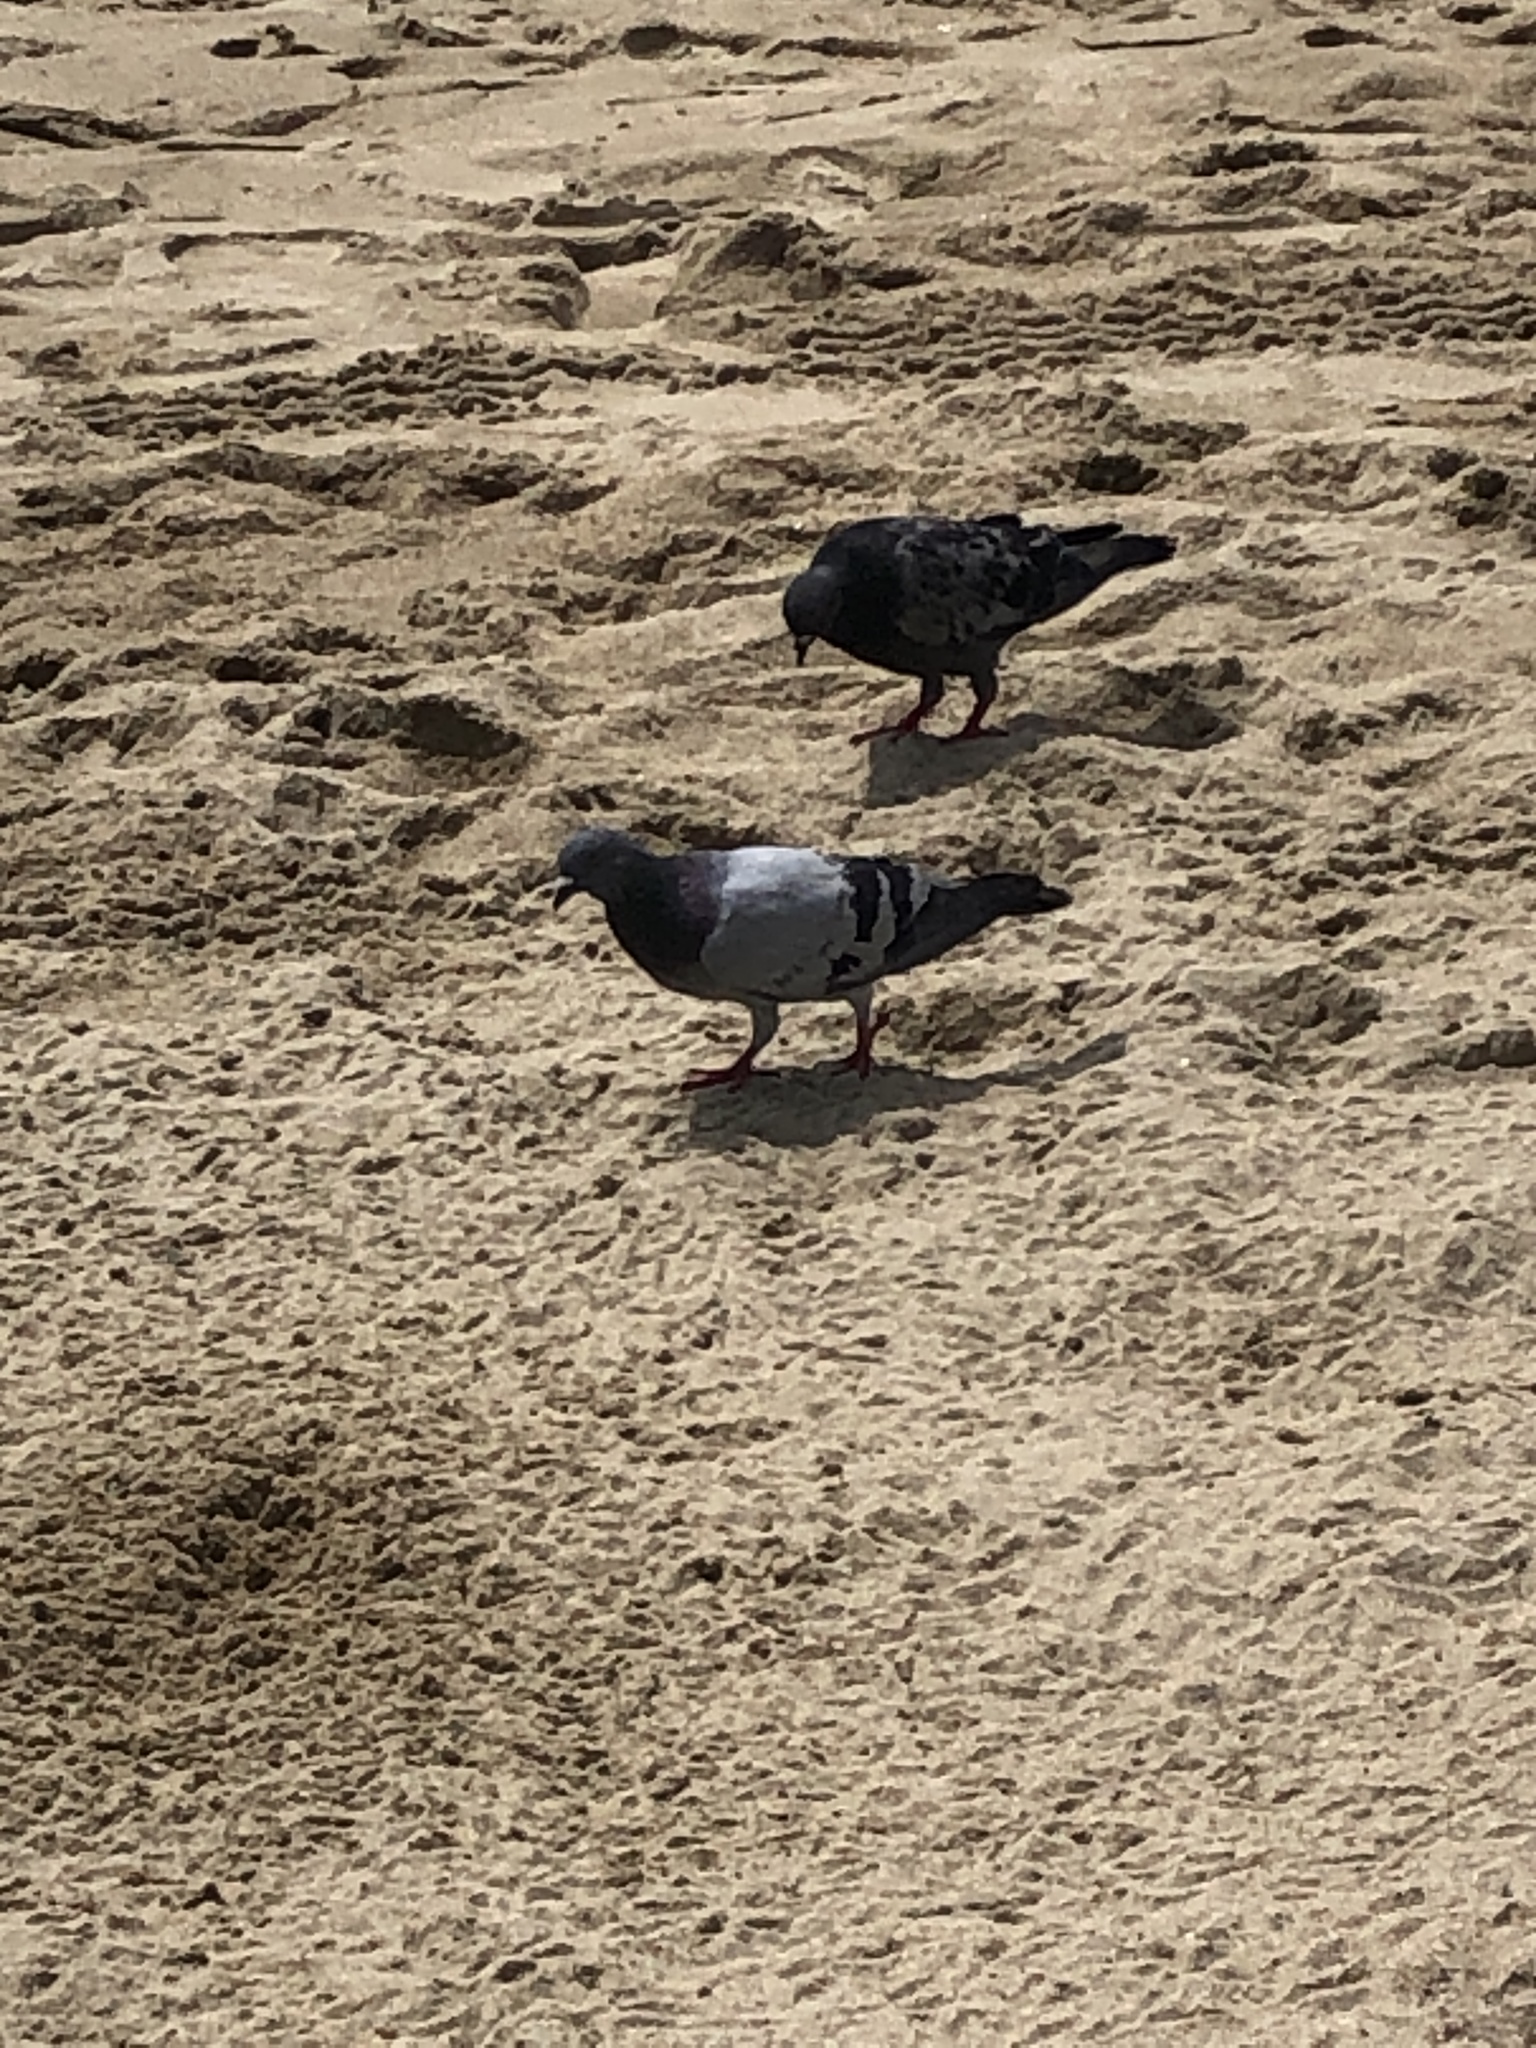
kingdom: Animalia
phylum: Chordata
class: Aves
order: Columbiformes
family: Columbidae
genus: Columba
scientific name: Columba livia
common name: Rock pigeon
